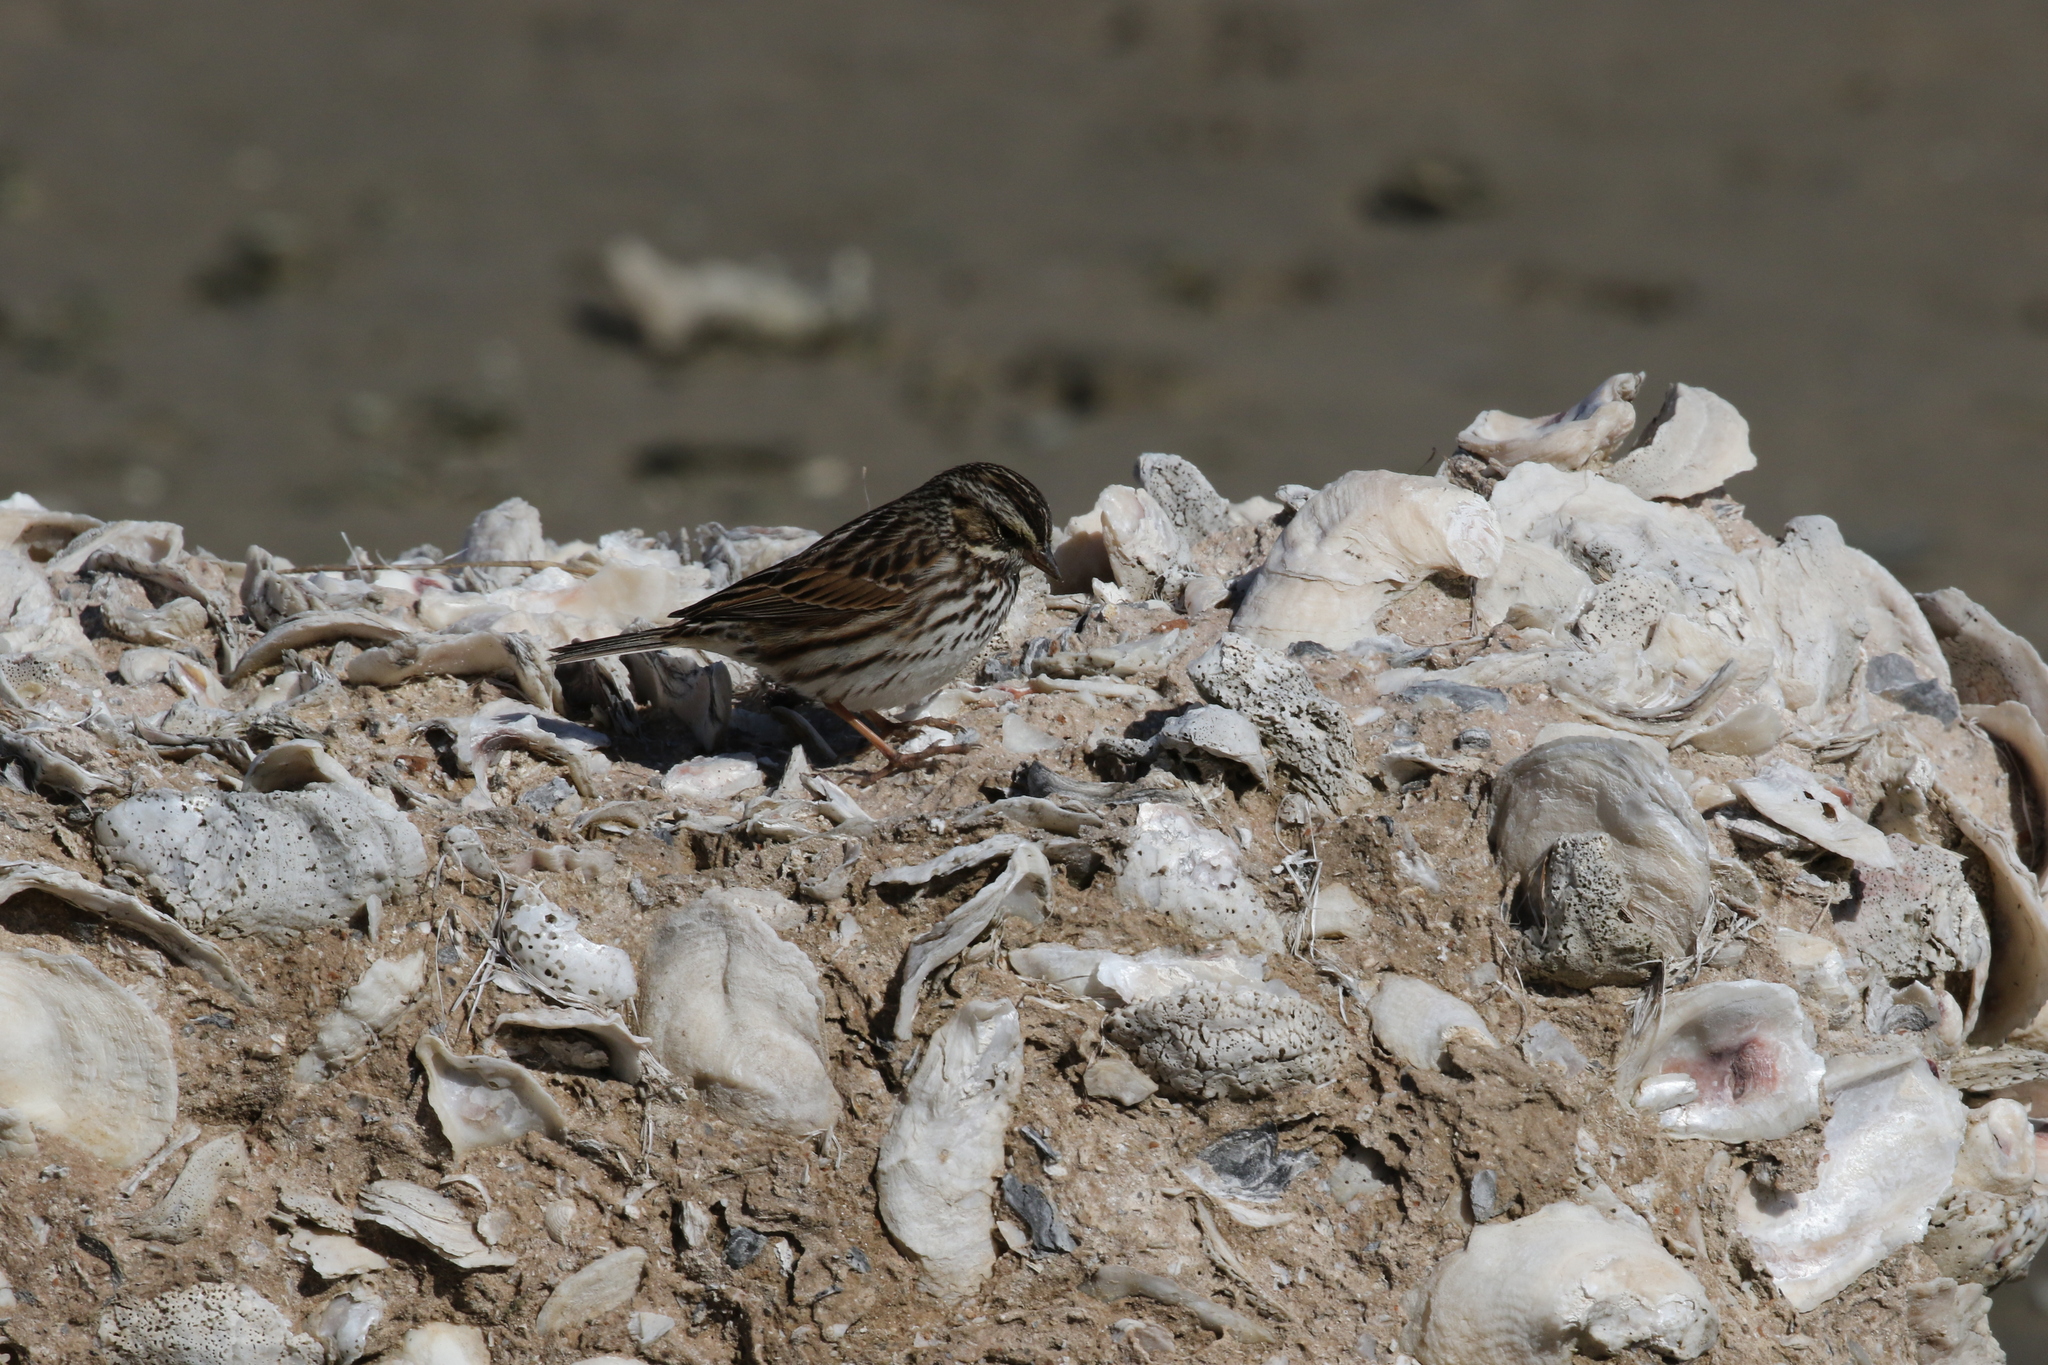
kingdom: Animalia
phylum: Chordata
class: Aves
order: Passeriformes
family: Passerellidae
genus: Passerculus
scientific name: Passerculus sandwichensis
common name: Savannah sparrow
